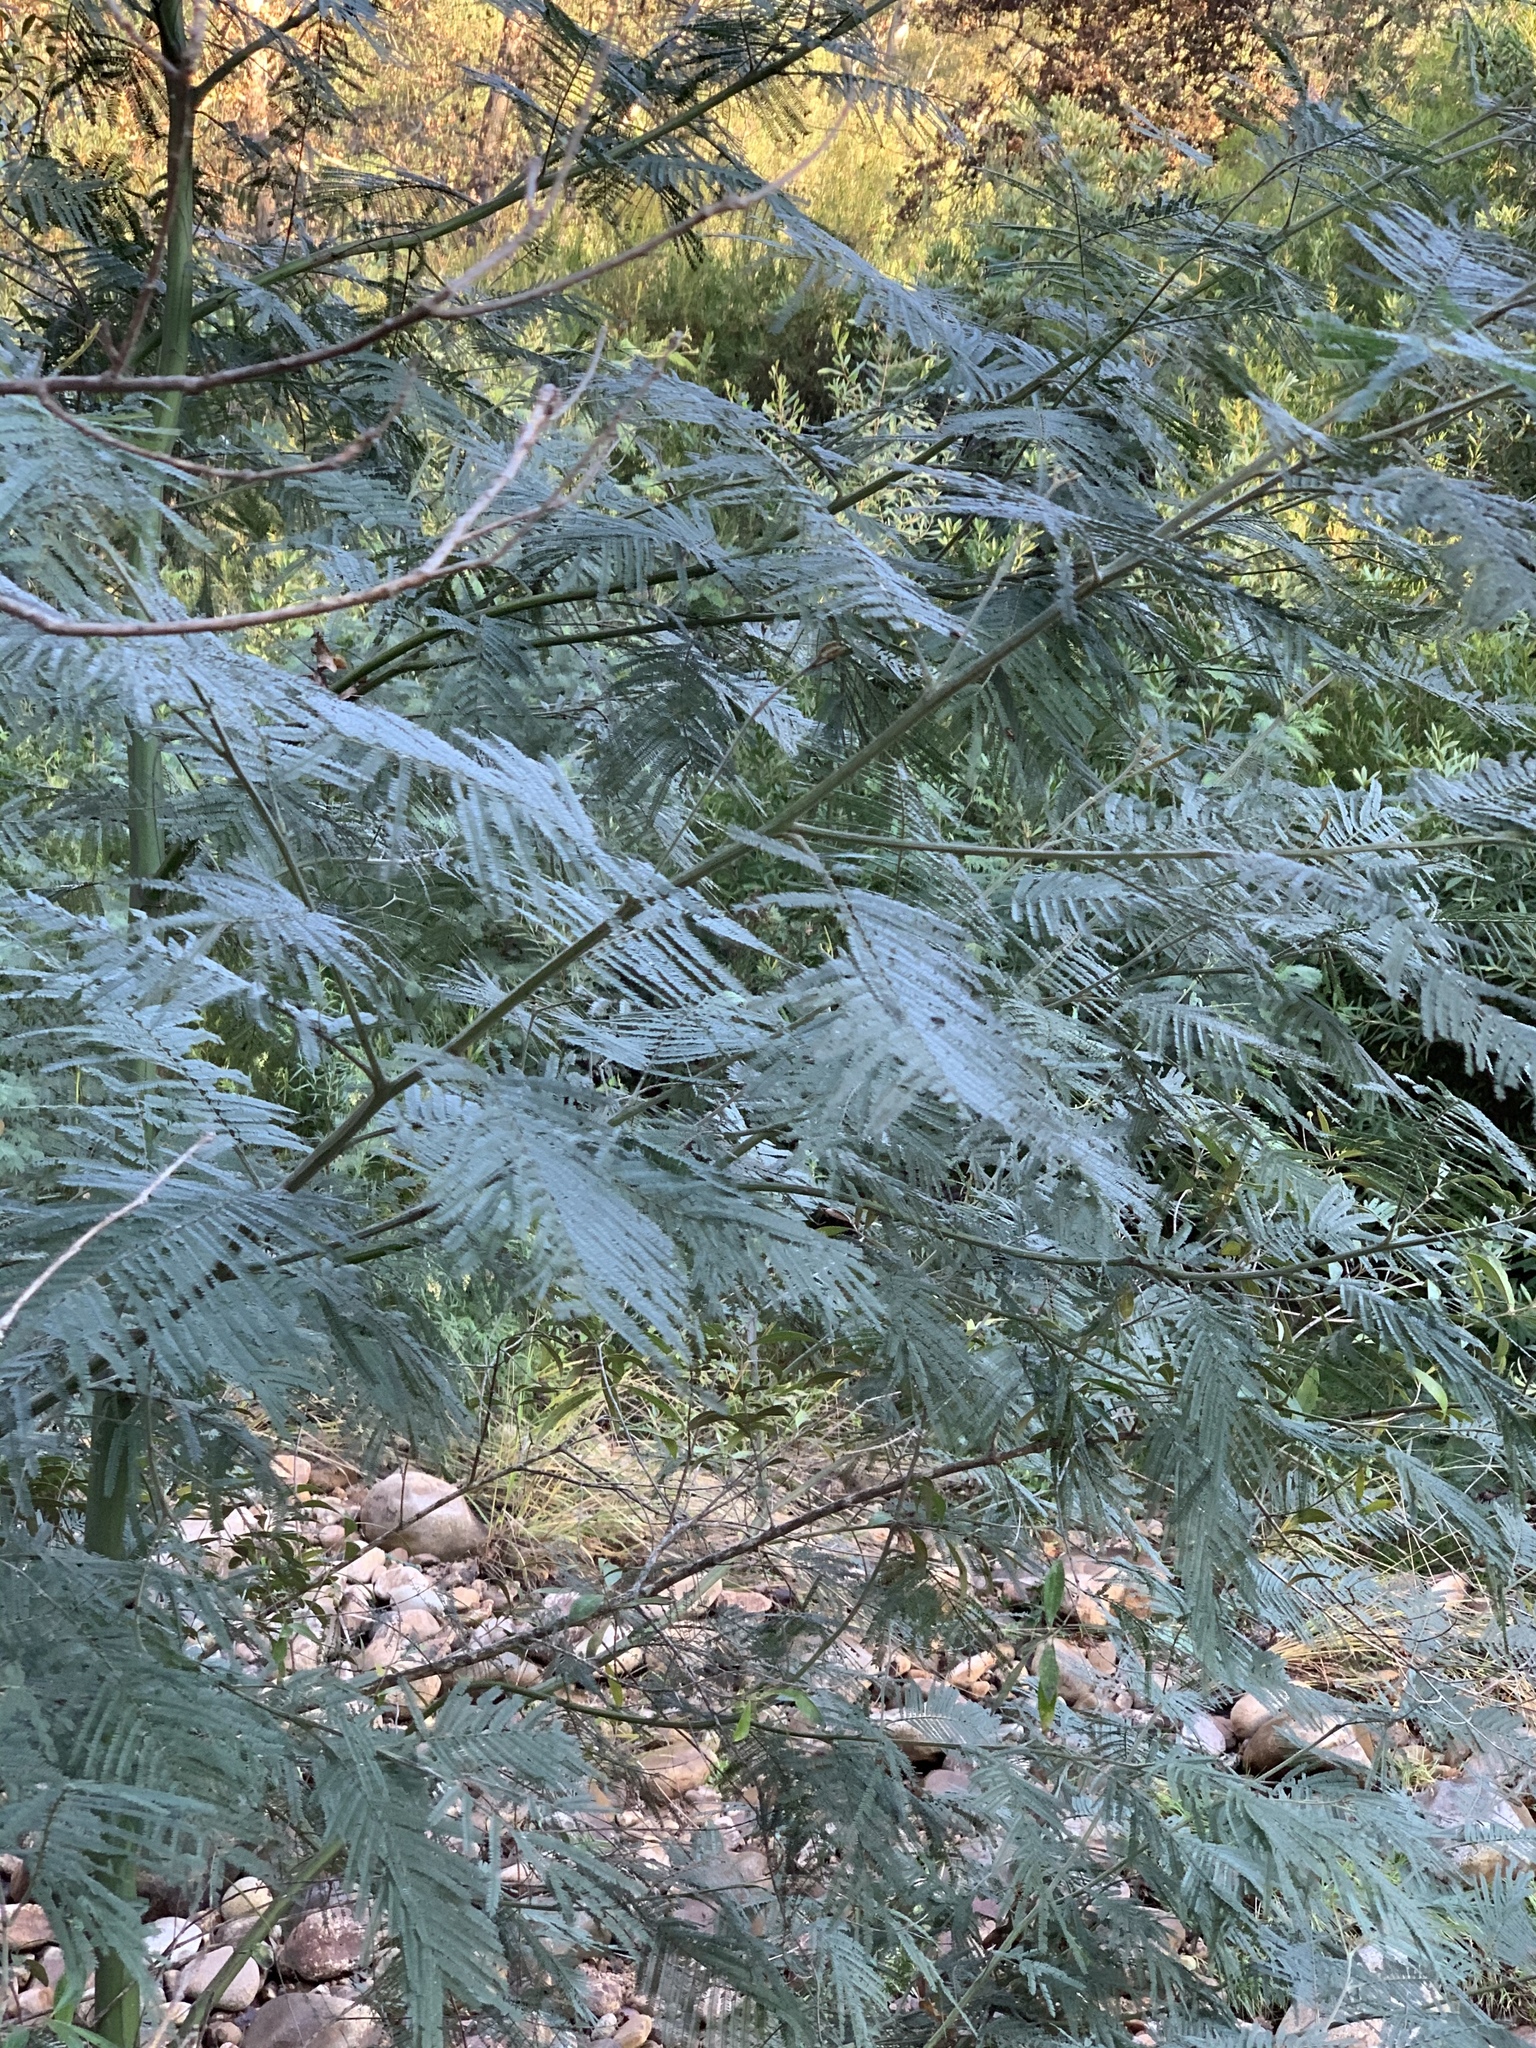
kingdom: Plantae
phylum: Tracheophyta
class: Magnoliopsida
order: Fabales
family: Fabaceae
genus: Acacia
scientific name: Acacia mearnsii
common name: Black wattle
